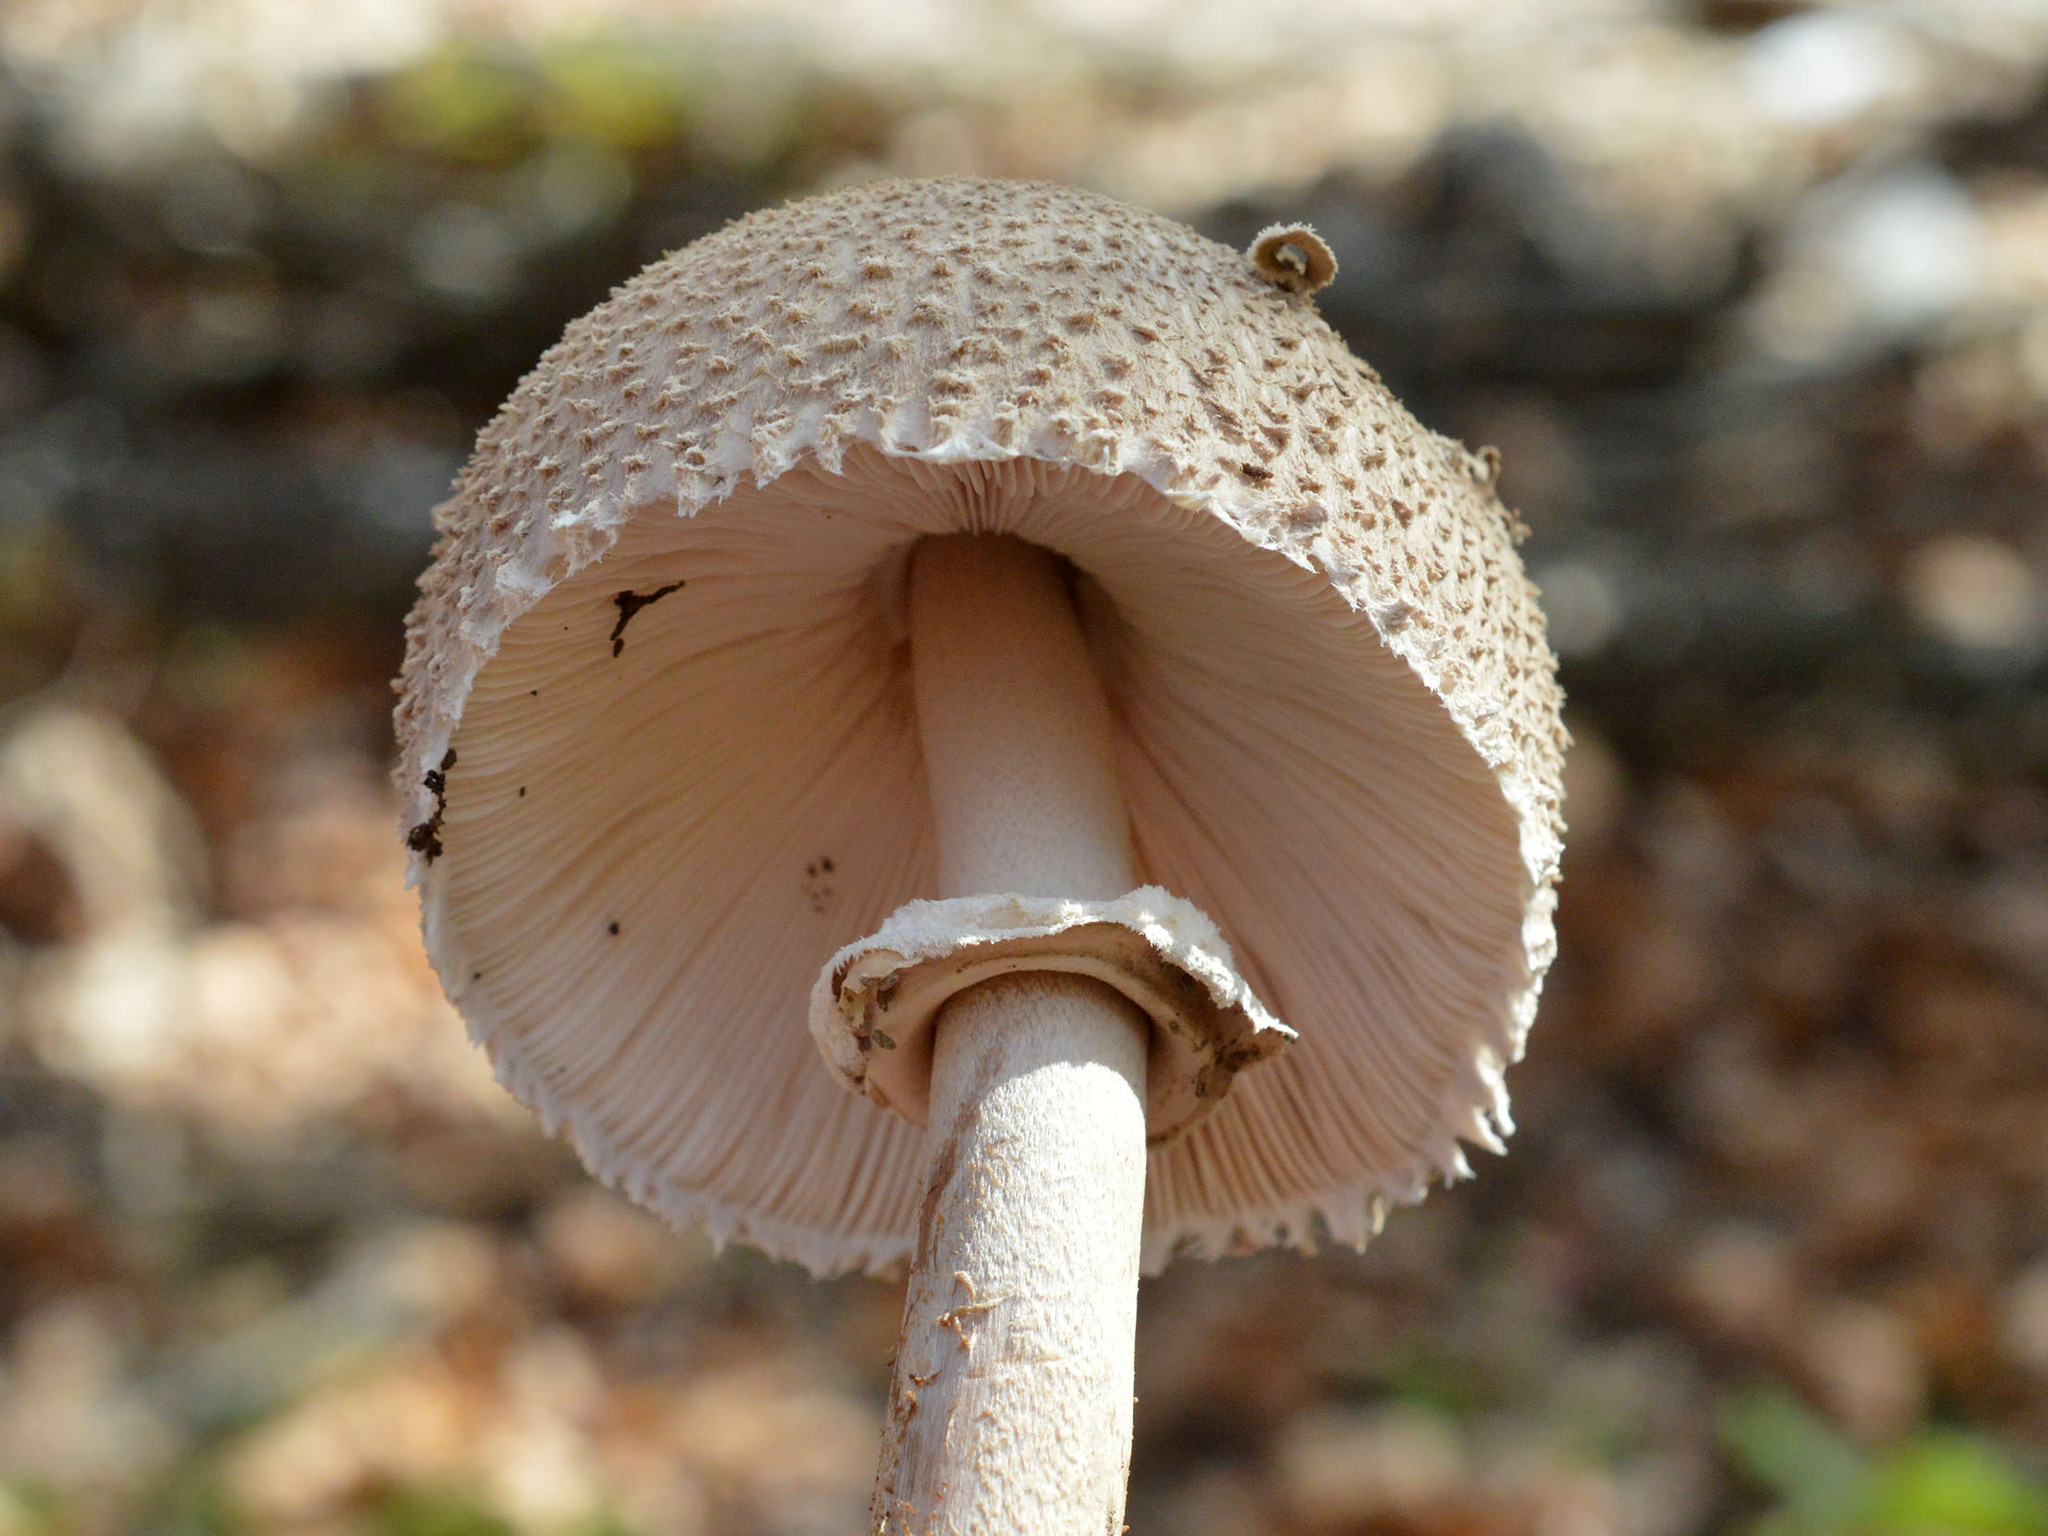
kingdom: Fungi
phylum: Basidiomycota
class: Agaricomycetes
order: Agaricales
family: Agaricaceae
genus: Macrolepiota
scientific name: Macrolepiota procera
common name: Parasol
